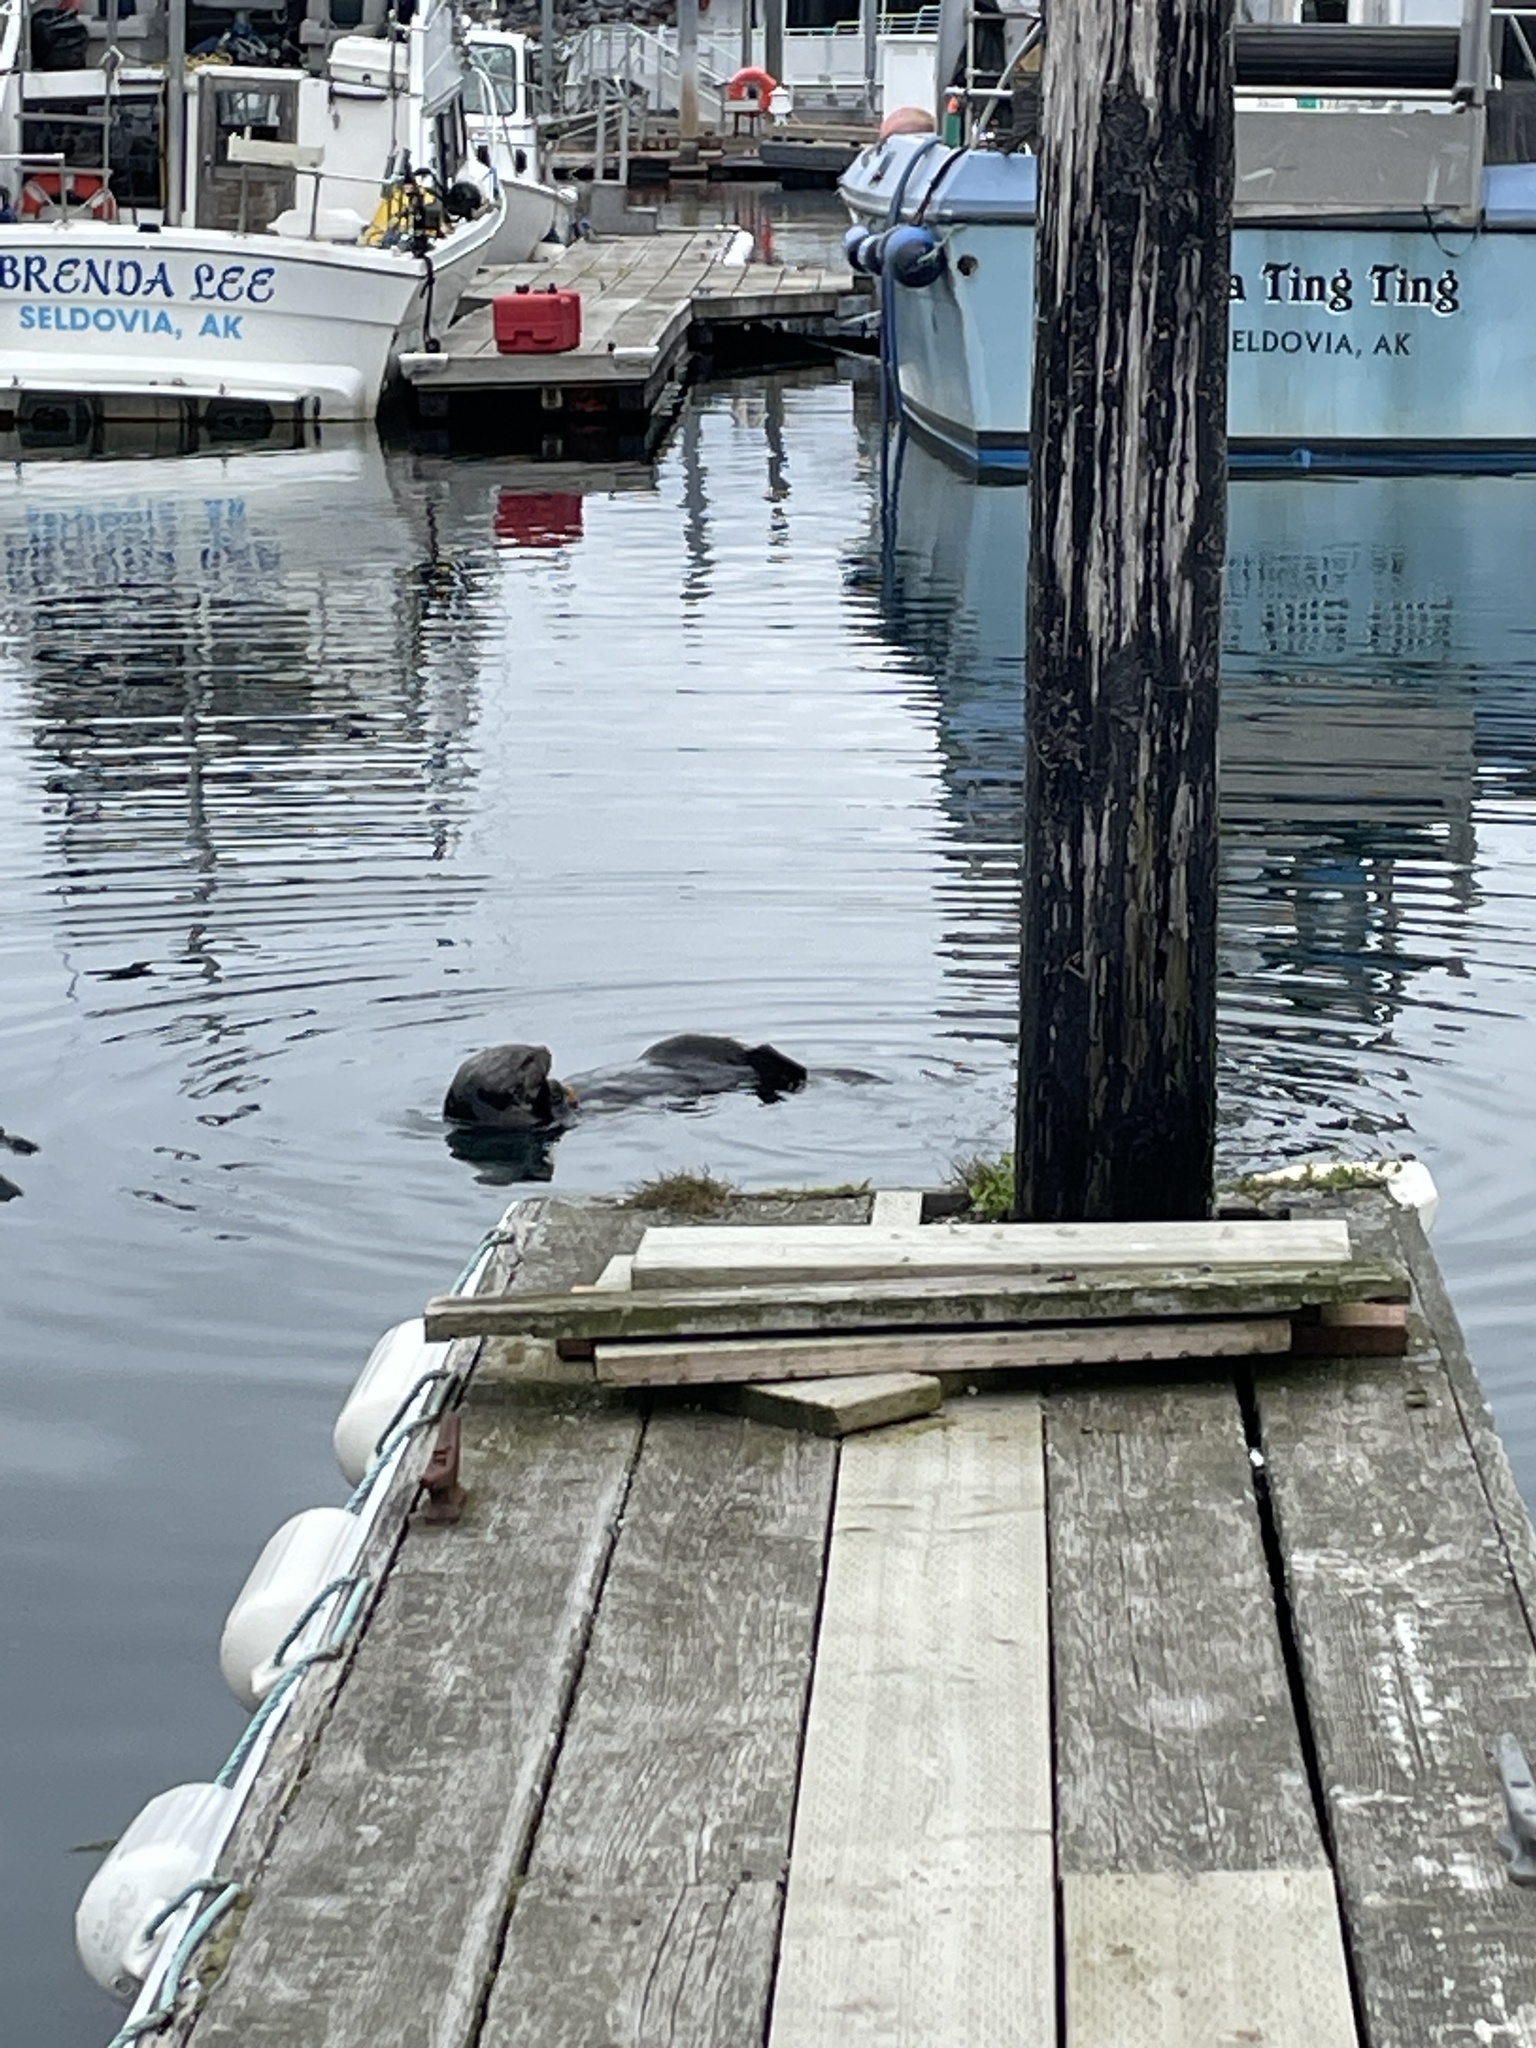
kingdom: Animalia
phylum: Chordata
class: Mammalia
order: Carnivora
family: Mustelidae
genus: Enhydra
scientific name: Enhydra lutris
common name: Sea otter
